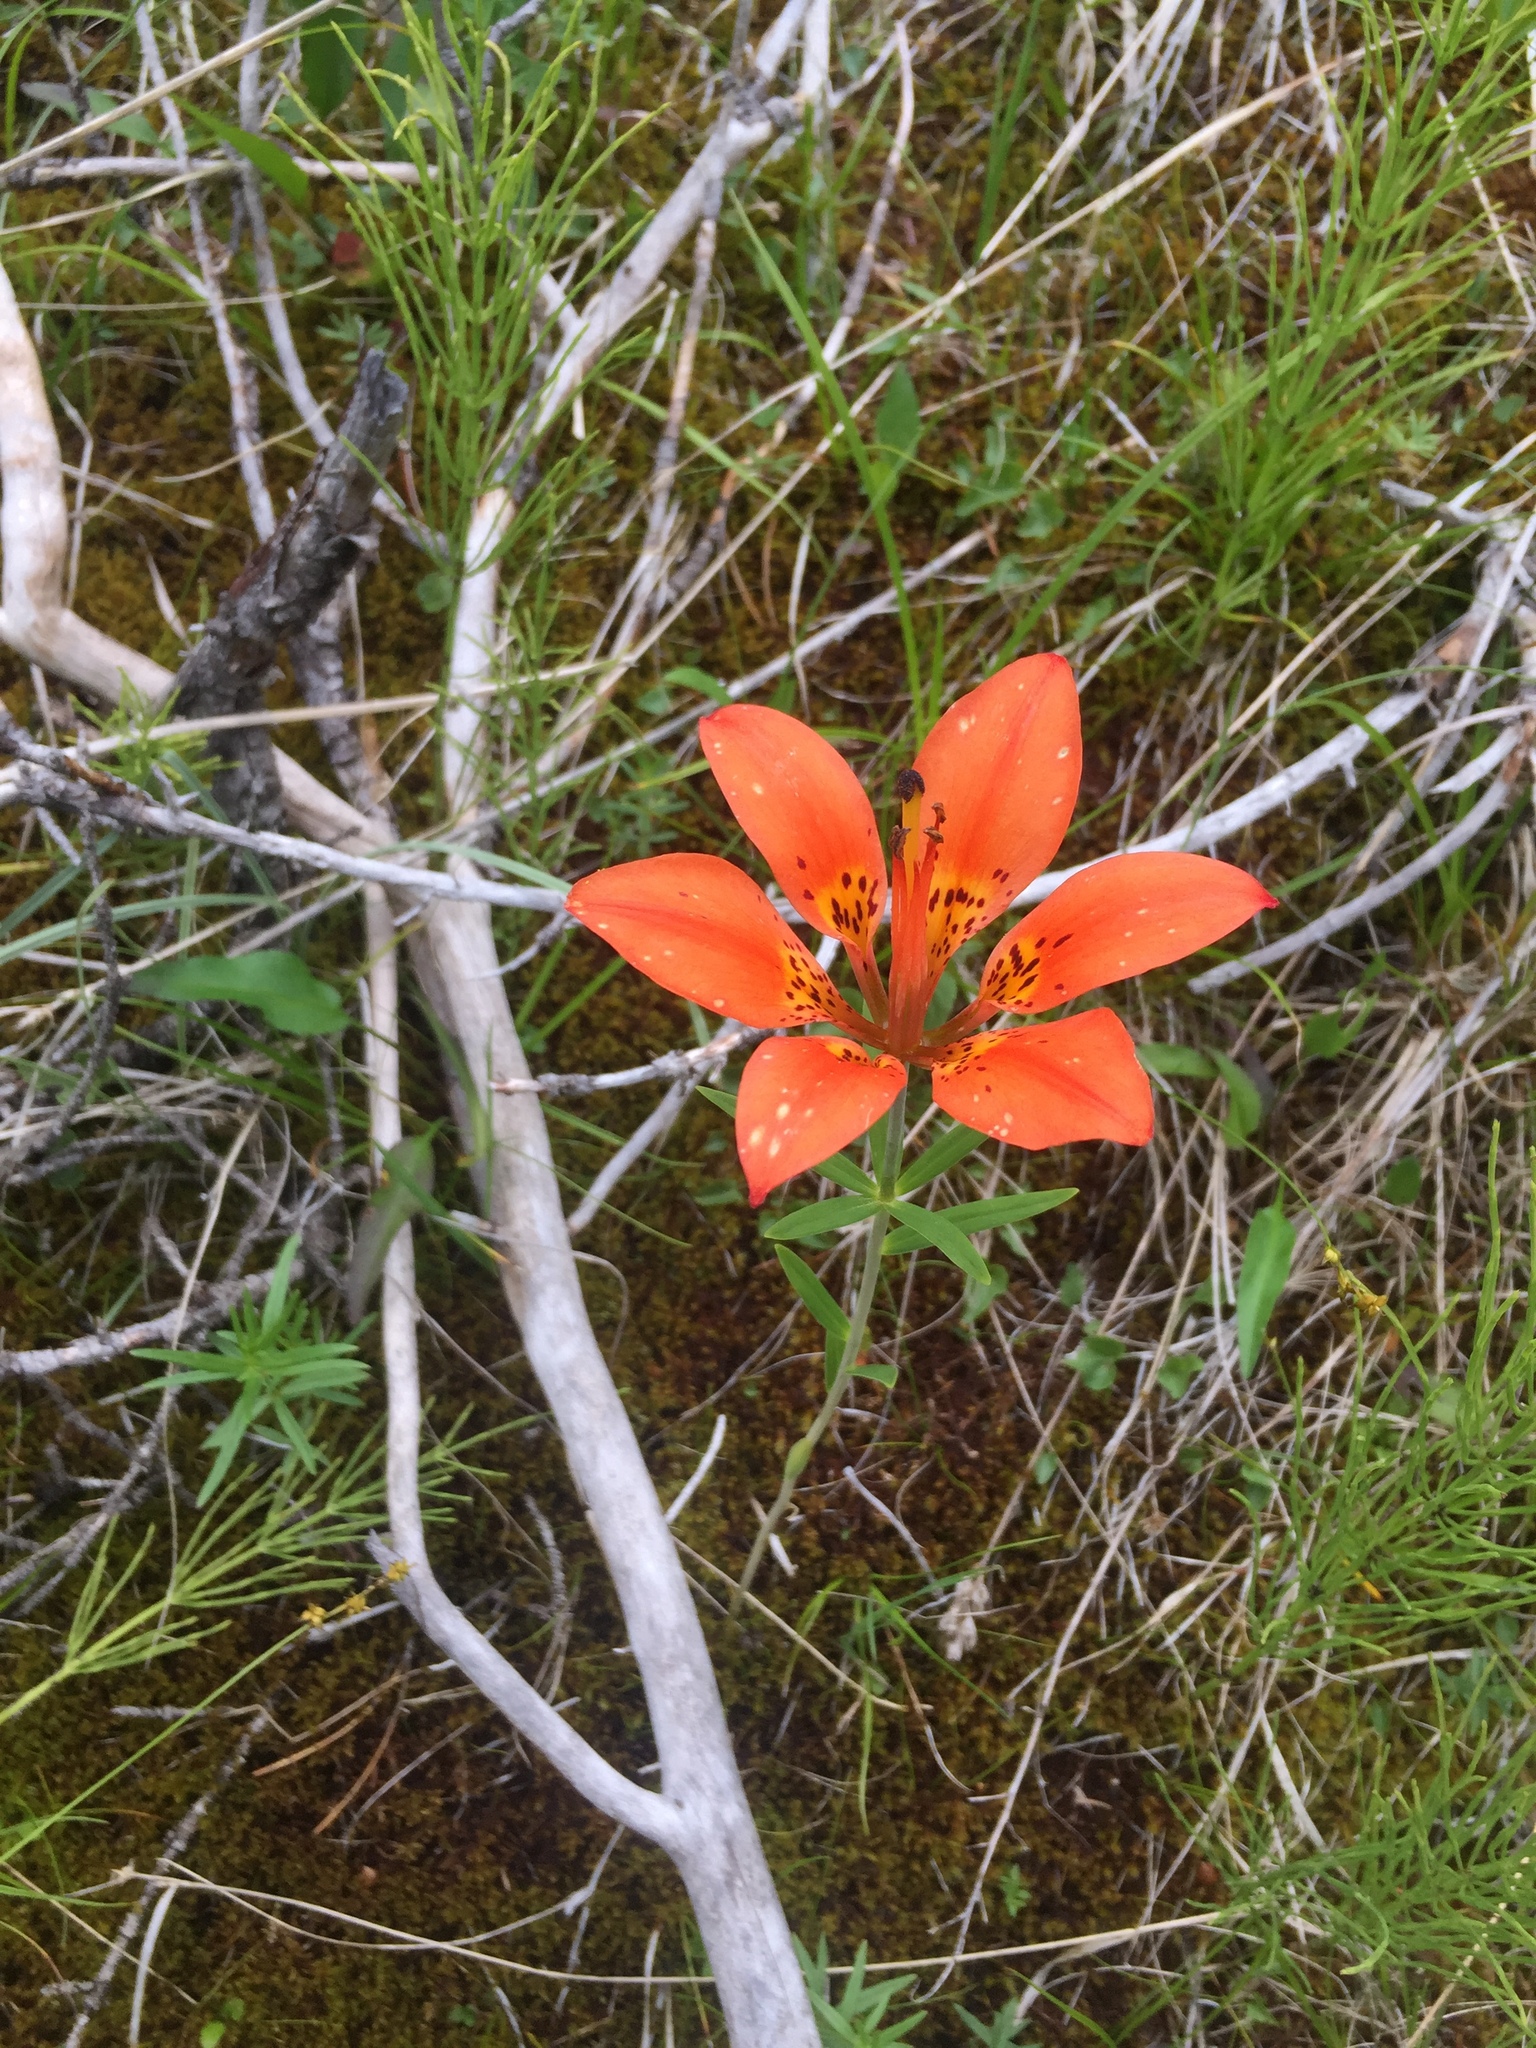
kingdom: Plantae
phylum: Tracheophyta
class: Liliopsida
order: Liliales
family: Liliaceae
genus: Lilium
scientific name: Lilium philadelphicum
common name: Red lily
